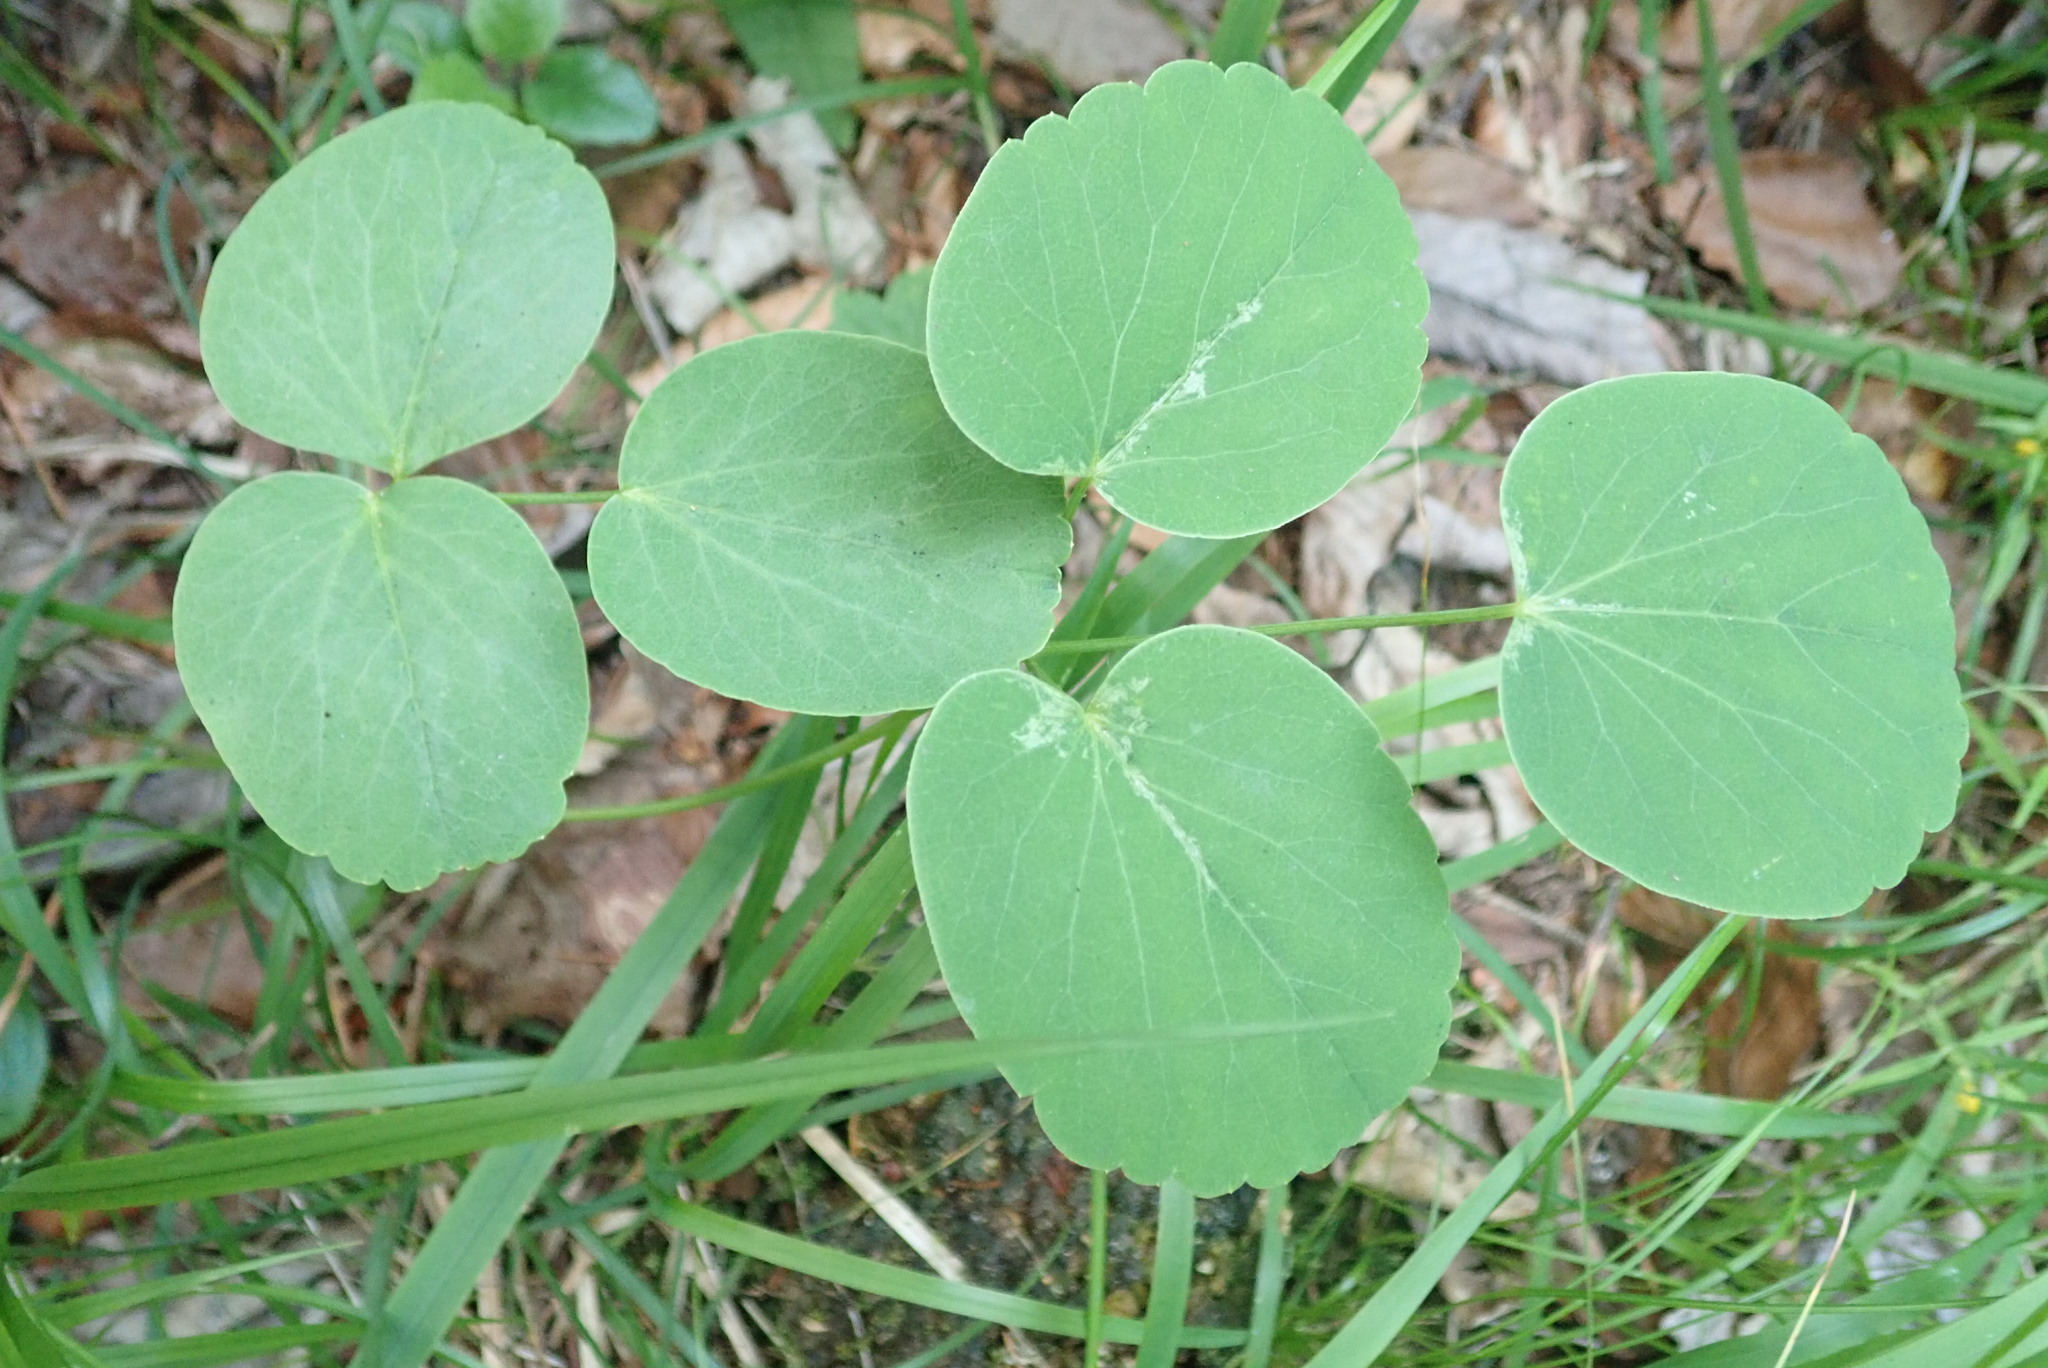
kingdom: Plantae
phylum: Tracheophyta
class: Magnoliopsida
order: Apiales
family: Apiaceae
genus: Laserpitium
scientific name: Laserpitium latifolium
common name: Broadleaf sermountain
